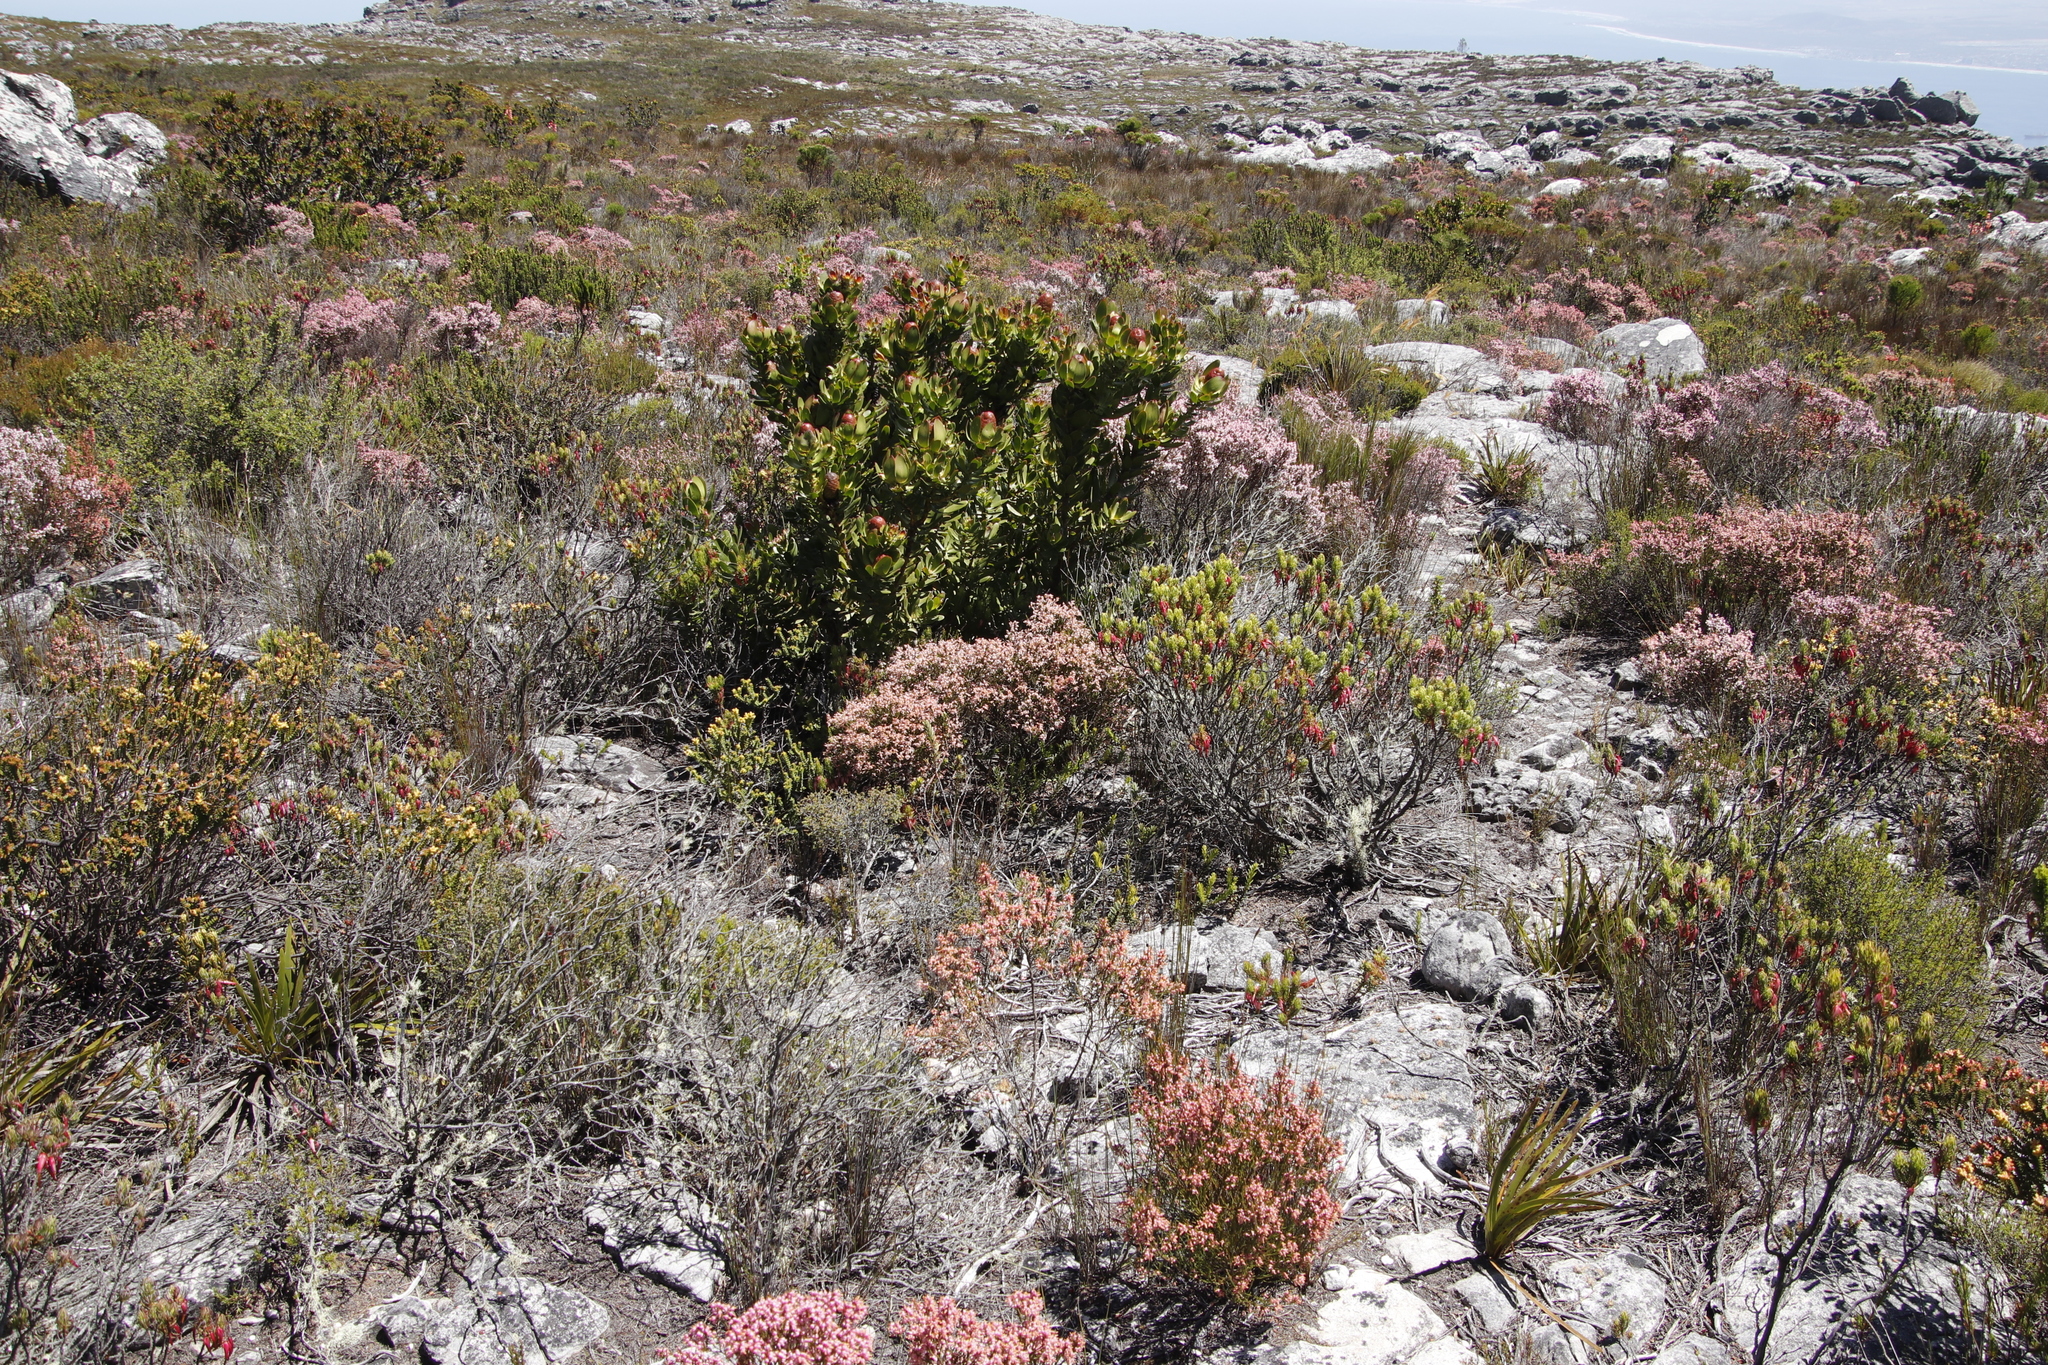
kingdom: Plantae
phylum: Tracheophyta
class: Magnoliopsida
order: Proteales
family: Proteaceae
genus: Leucadendron
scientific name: Leucadendron strobilinum
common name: Mountain rose
